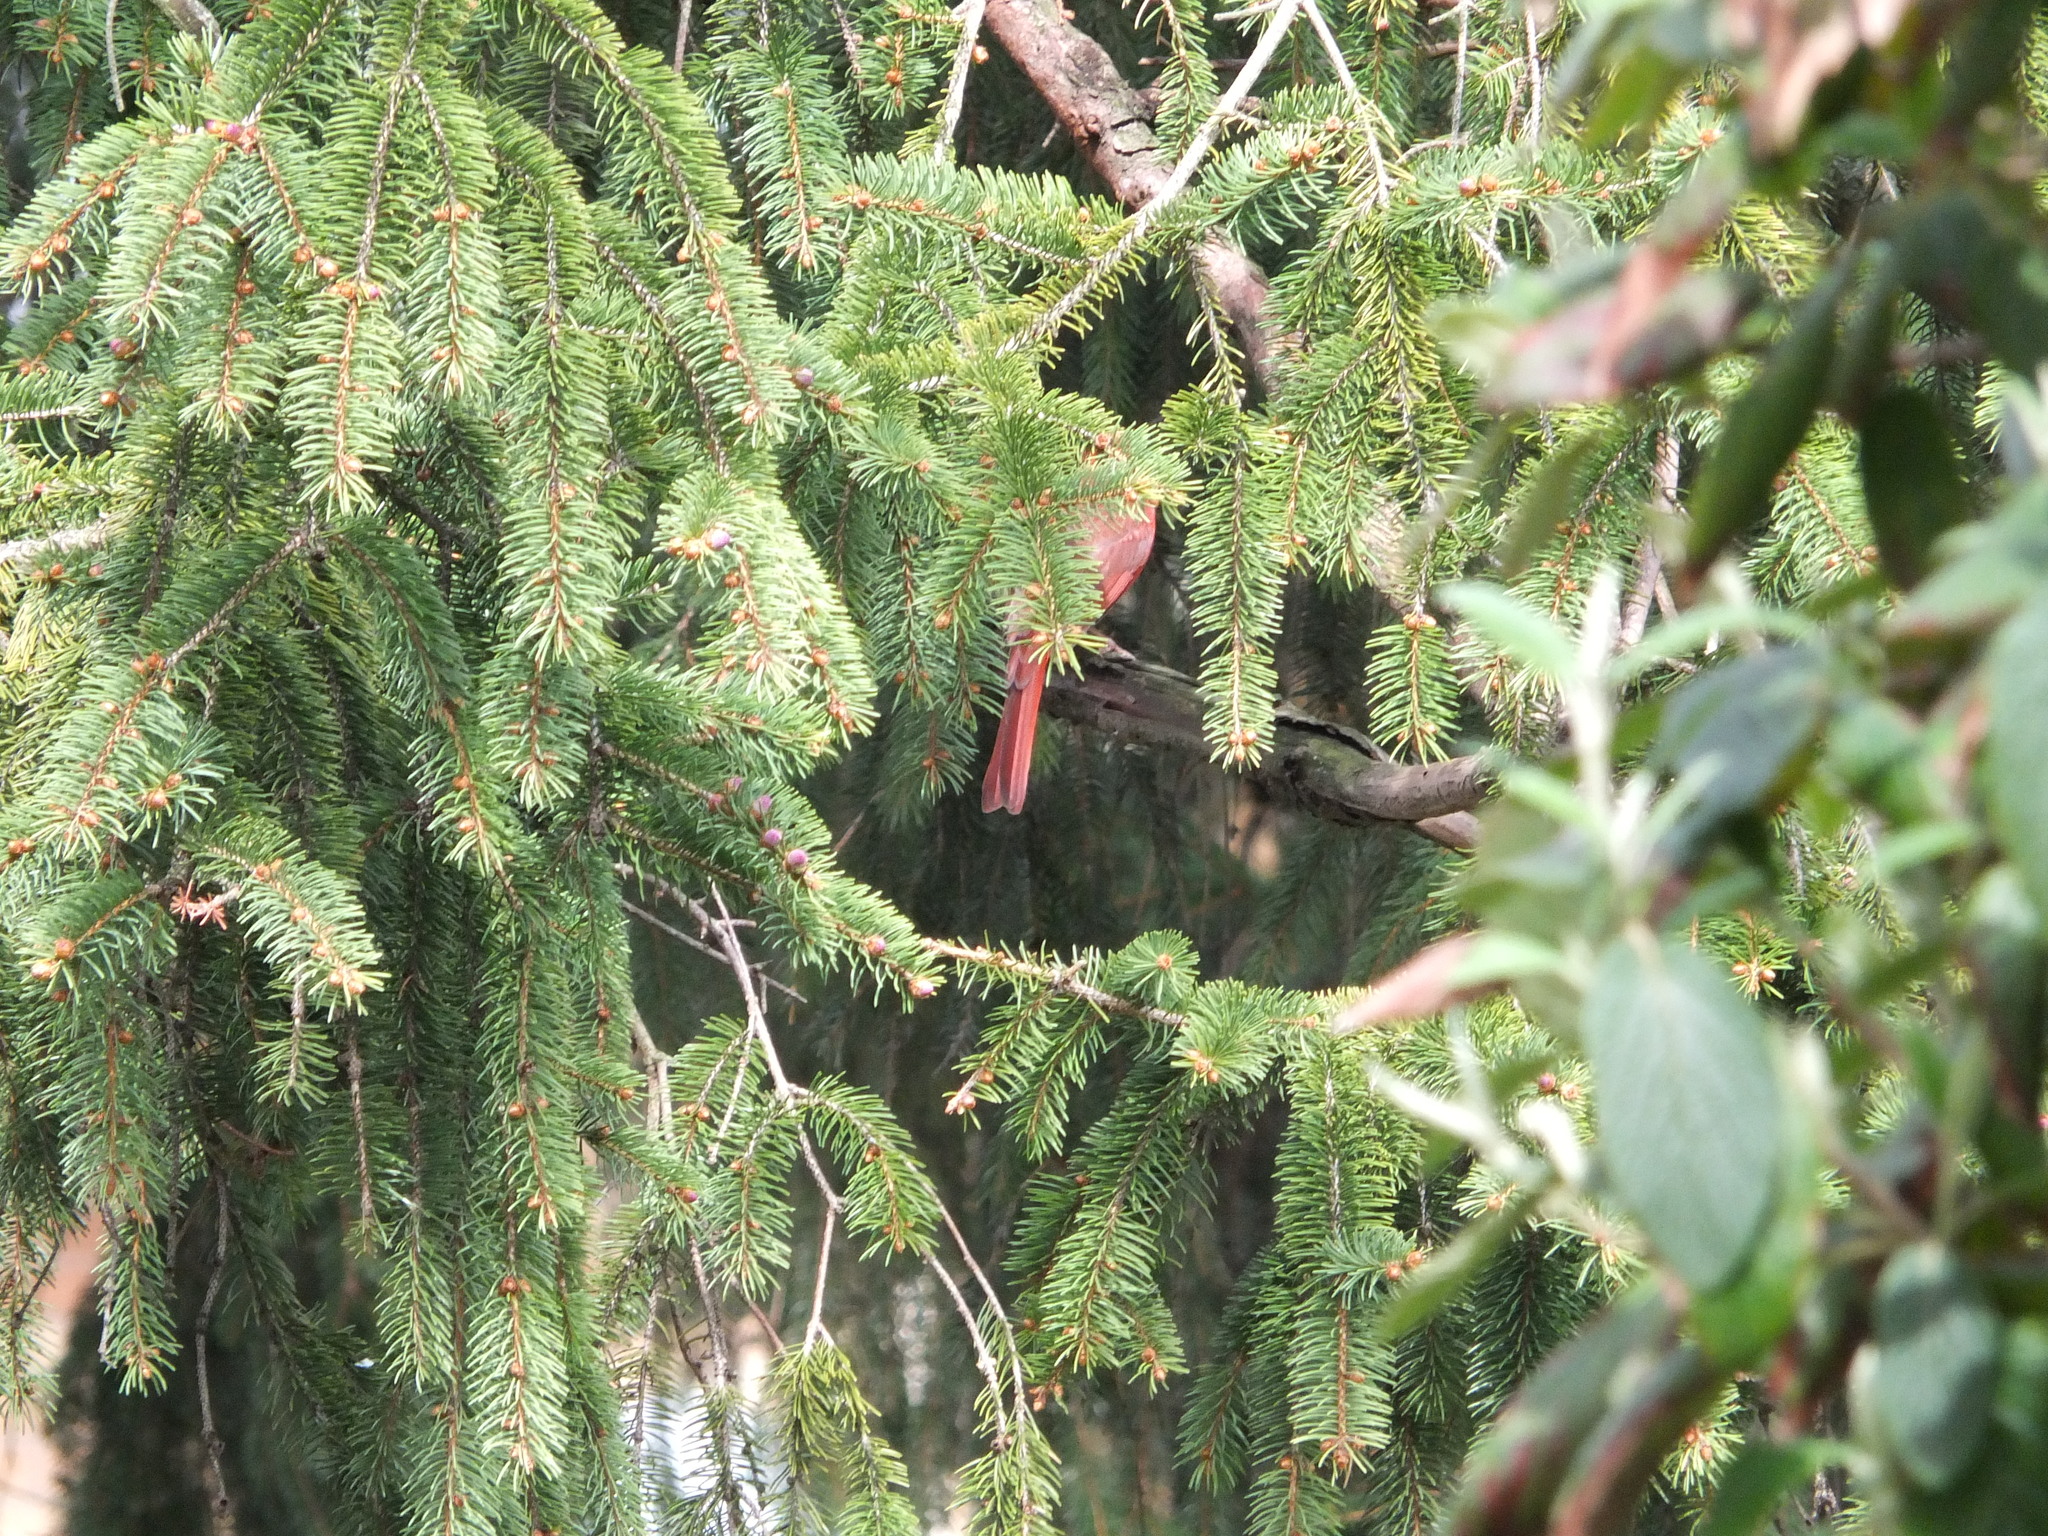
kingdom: Animalia
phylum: Chordata
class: Aves
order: Passeriformes
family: Cardinalidae
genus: Cardinalis
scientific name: Cardinalis cardinalis
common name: Northern cardinal
